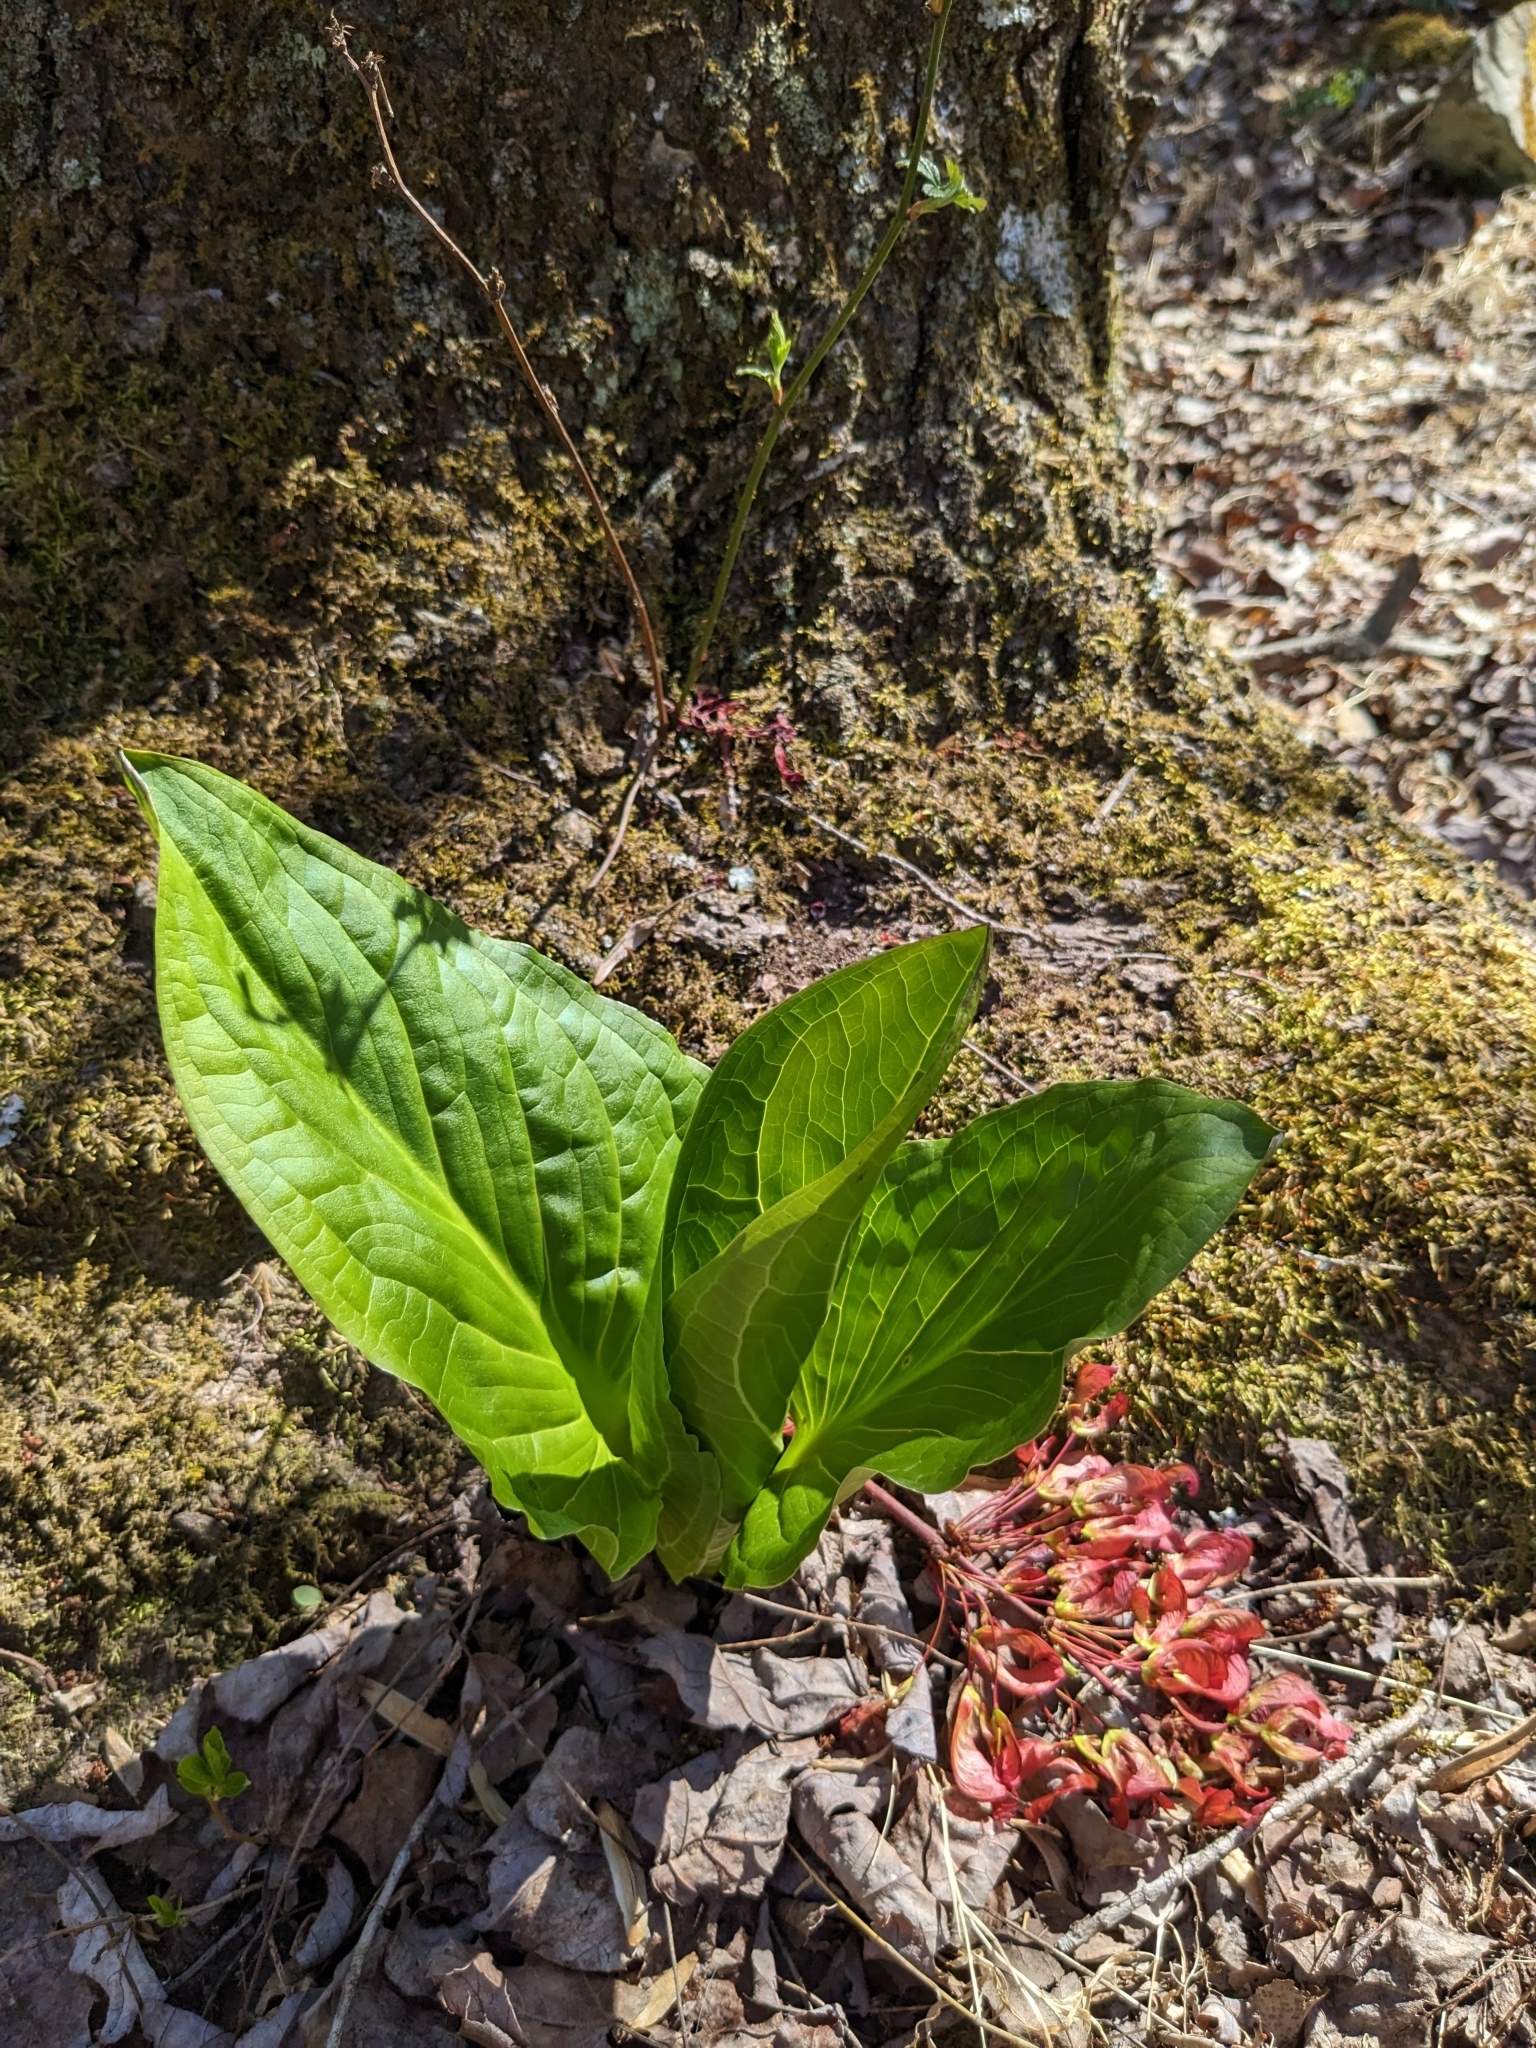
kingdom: Plantae
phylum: Tracheophyta
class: Liliopsida
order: Alismatales
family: Araceae
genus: Symplocarpus
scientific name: Symplocarpus foetidus
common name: Eastern skunk cabbage
